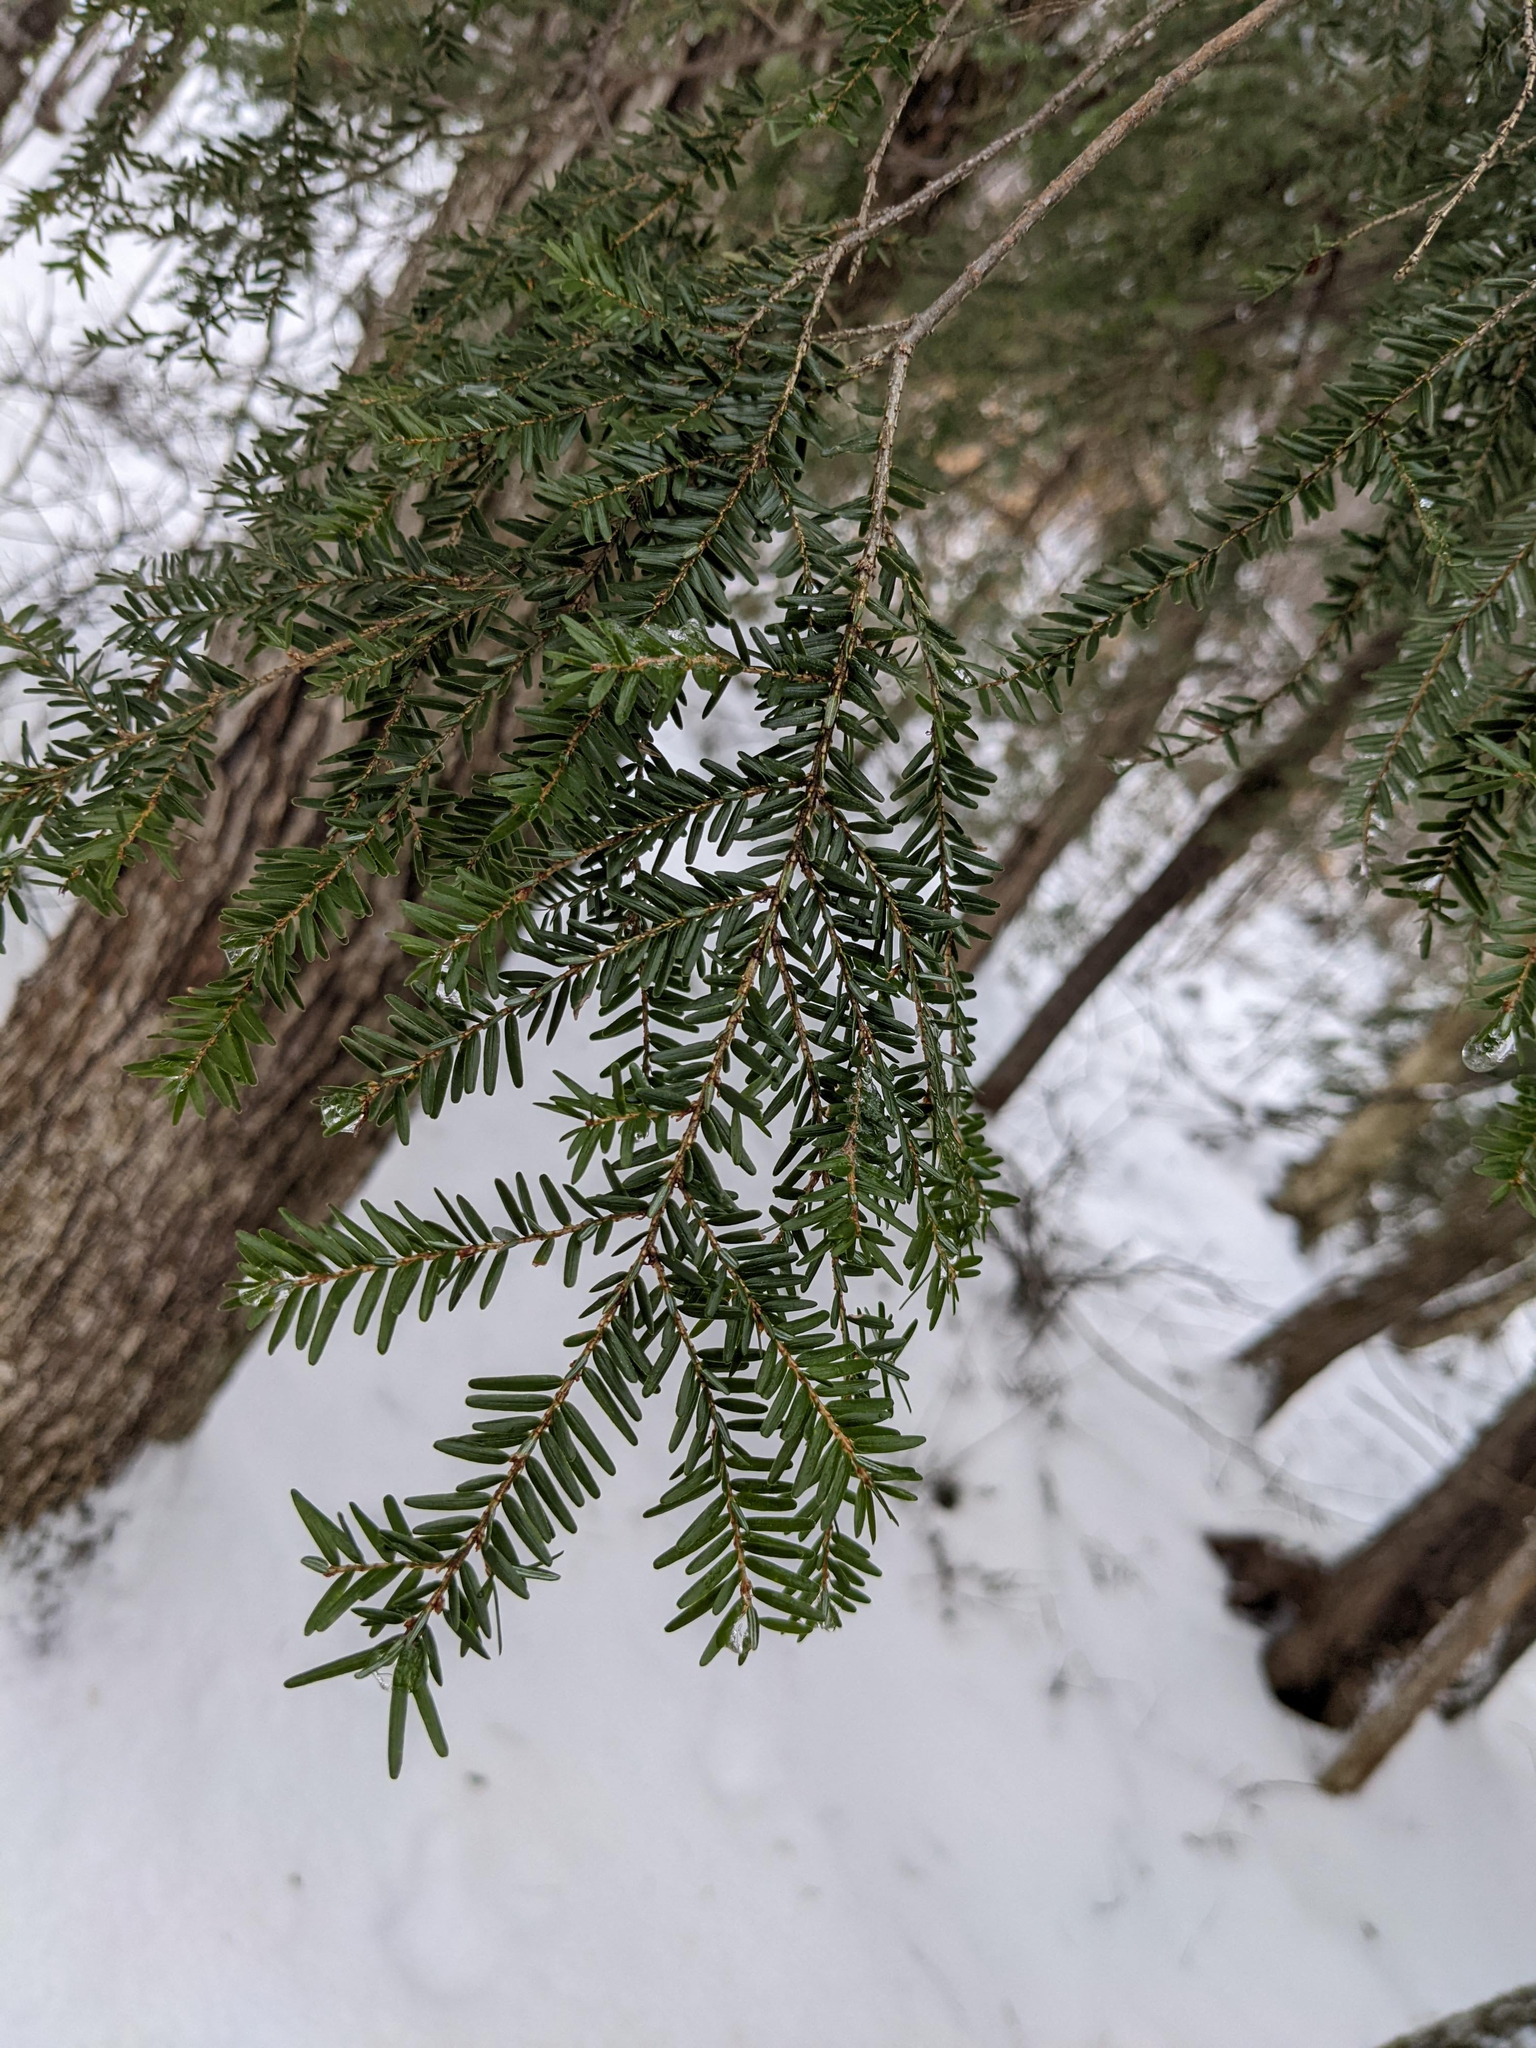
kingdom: Plantae
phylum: Tracheophyta
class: Pinopsida
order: Pinales
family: Pinaceae
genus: Tsuga
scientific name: Tsuga canadensis
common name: Eastern hemlock
